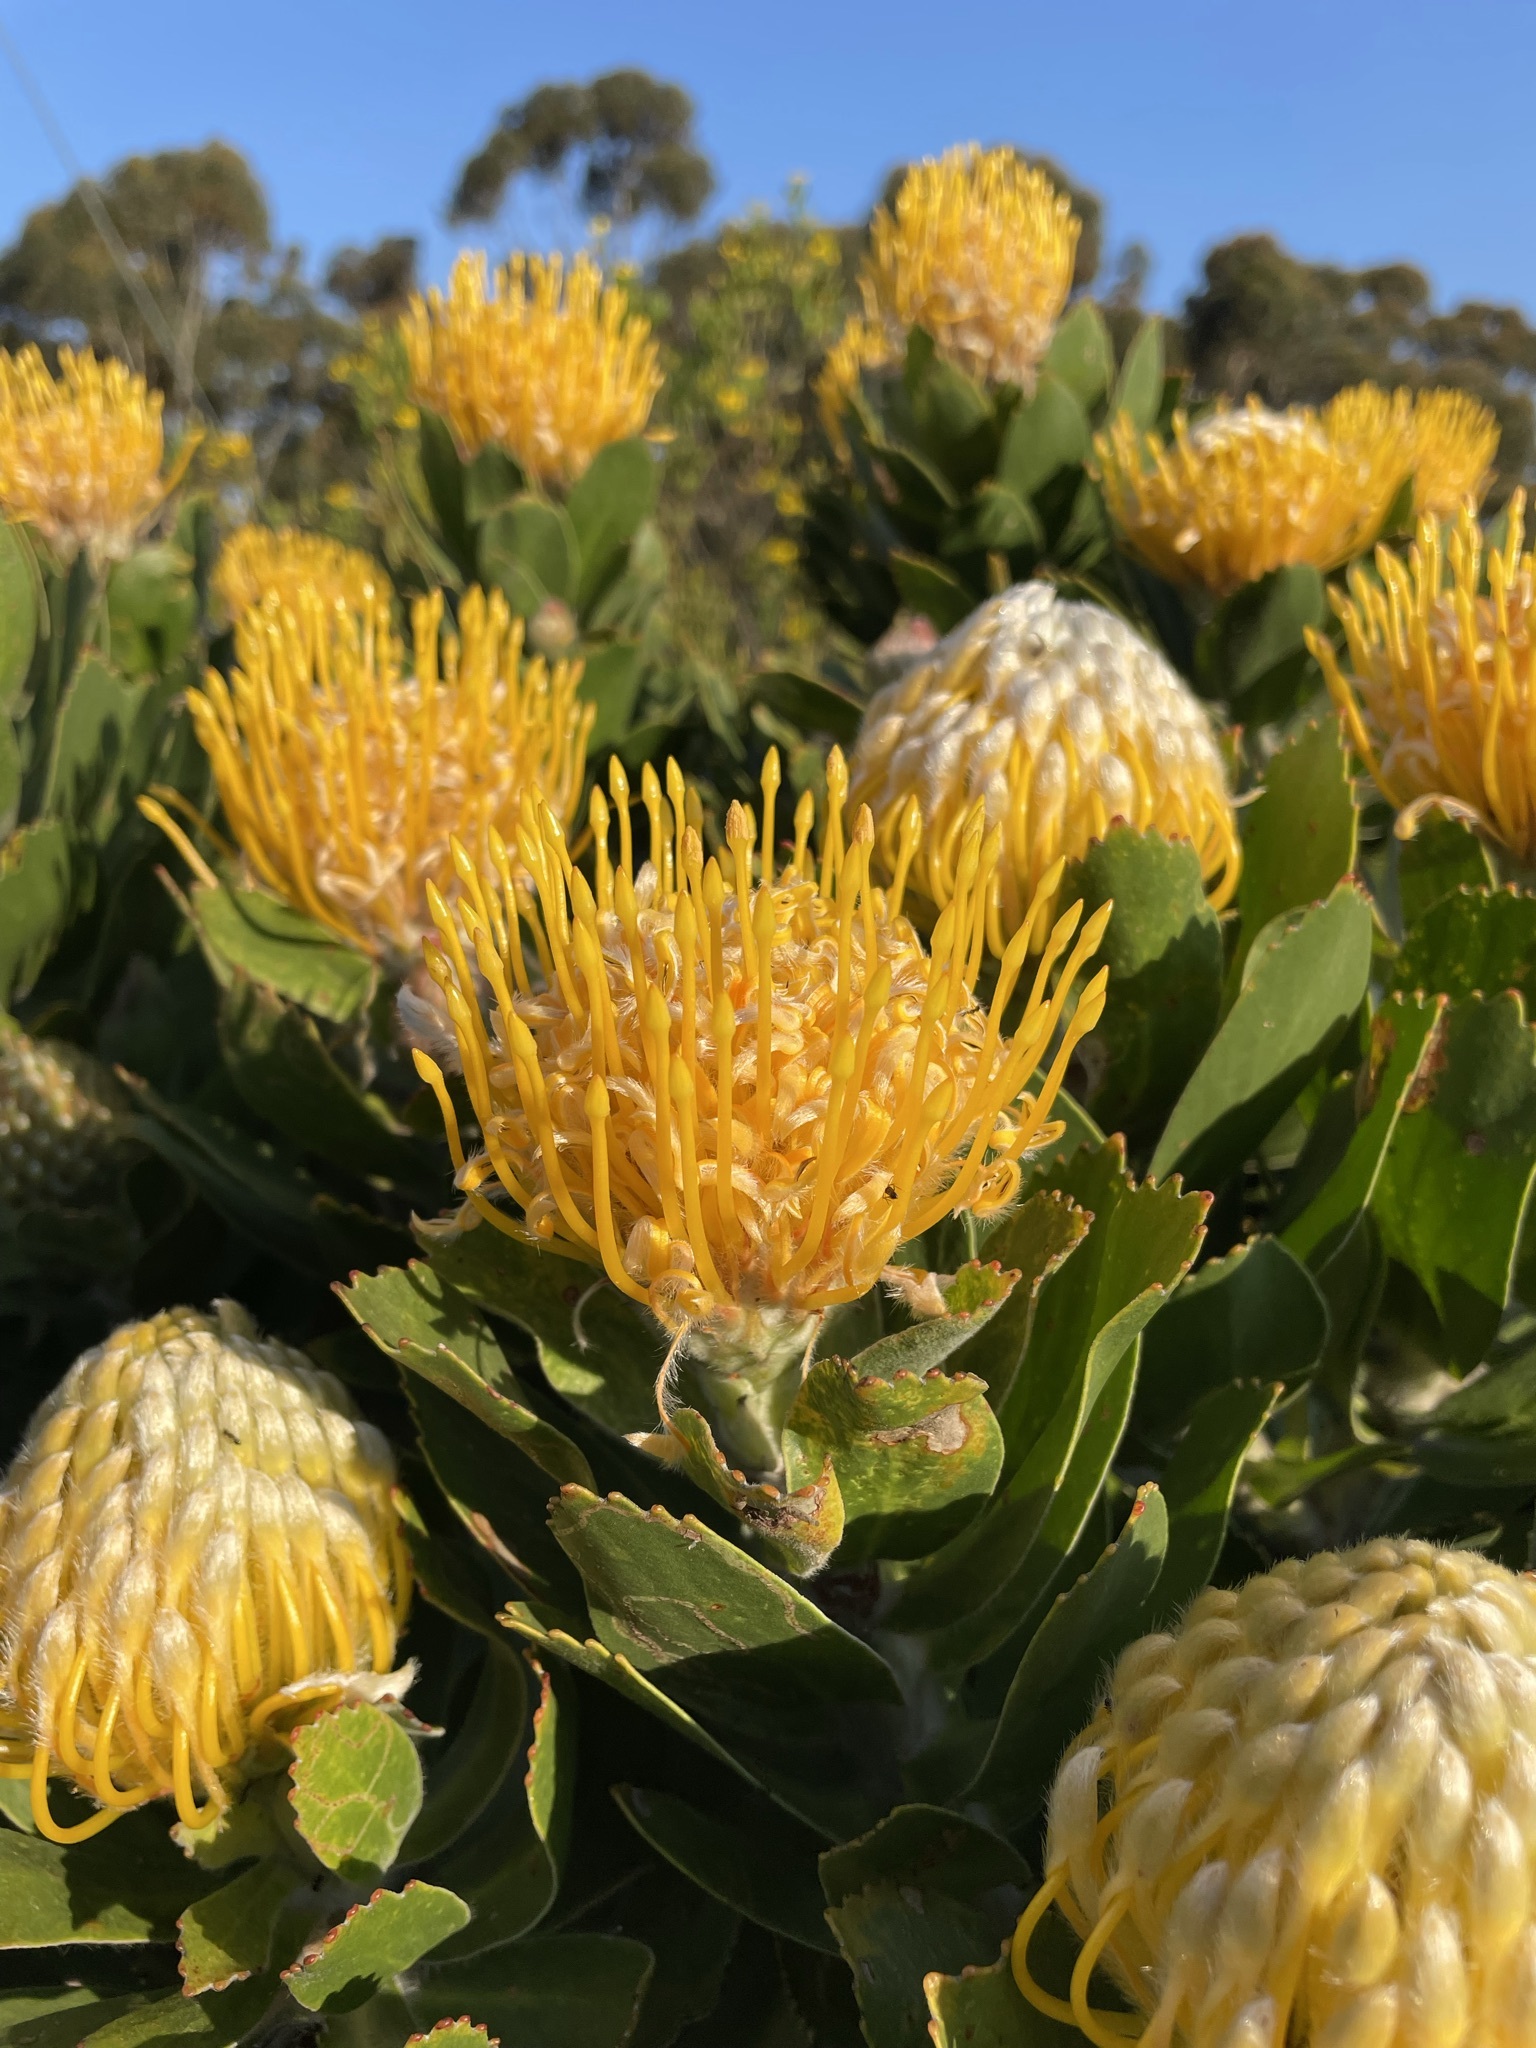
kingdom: Plantae
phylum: Tracheophyta
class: Magnoliopsida
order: Proteales
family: Proteaceae
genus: Leucospermum
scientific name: Leucospermum conocarpodendron
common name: Tree pincushion
